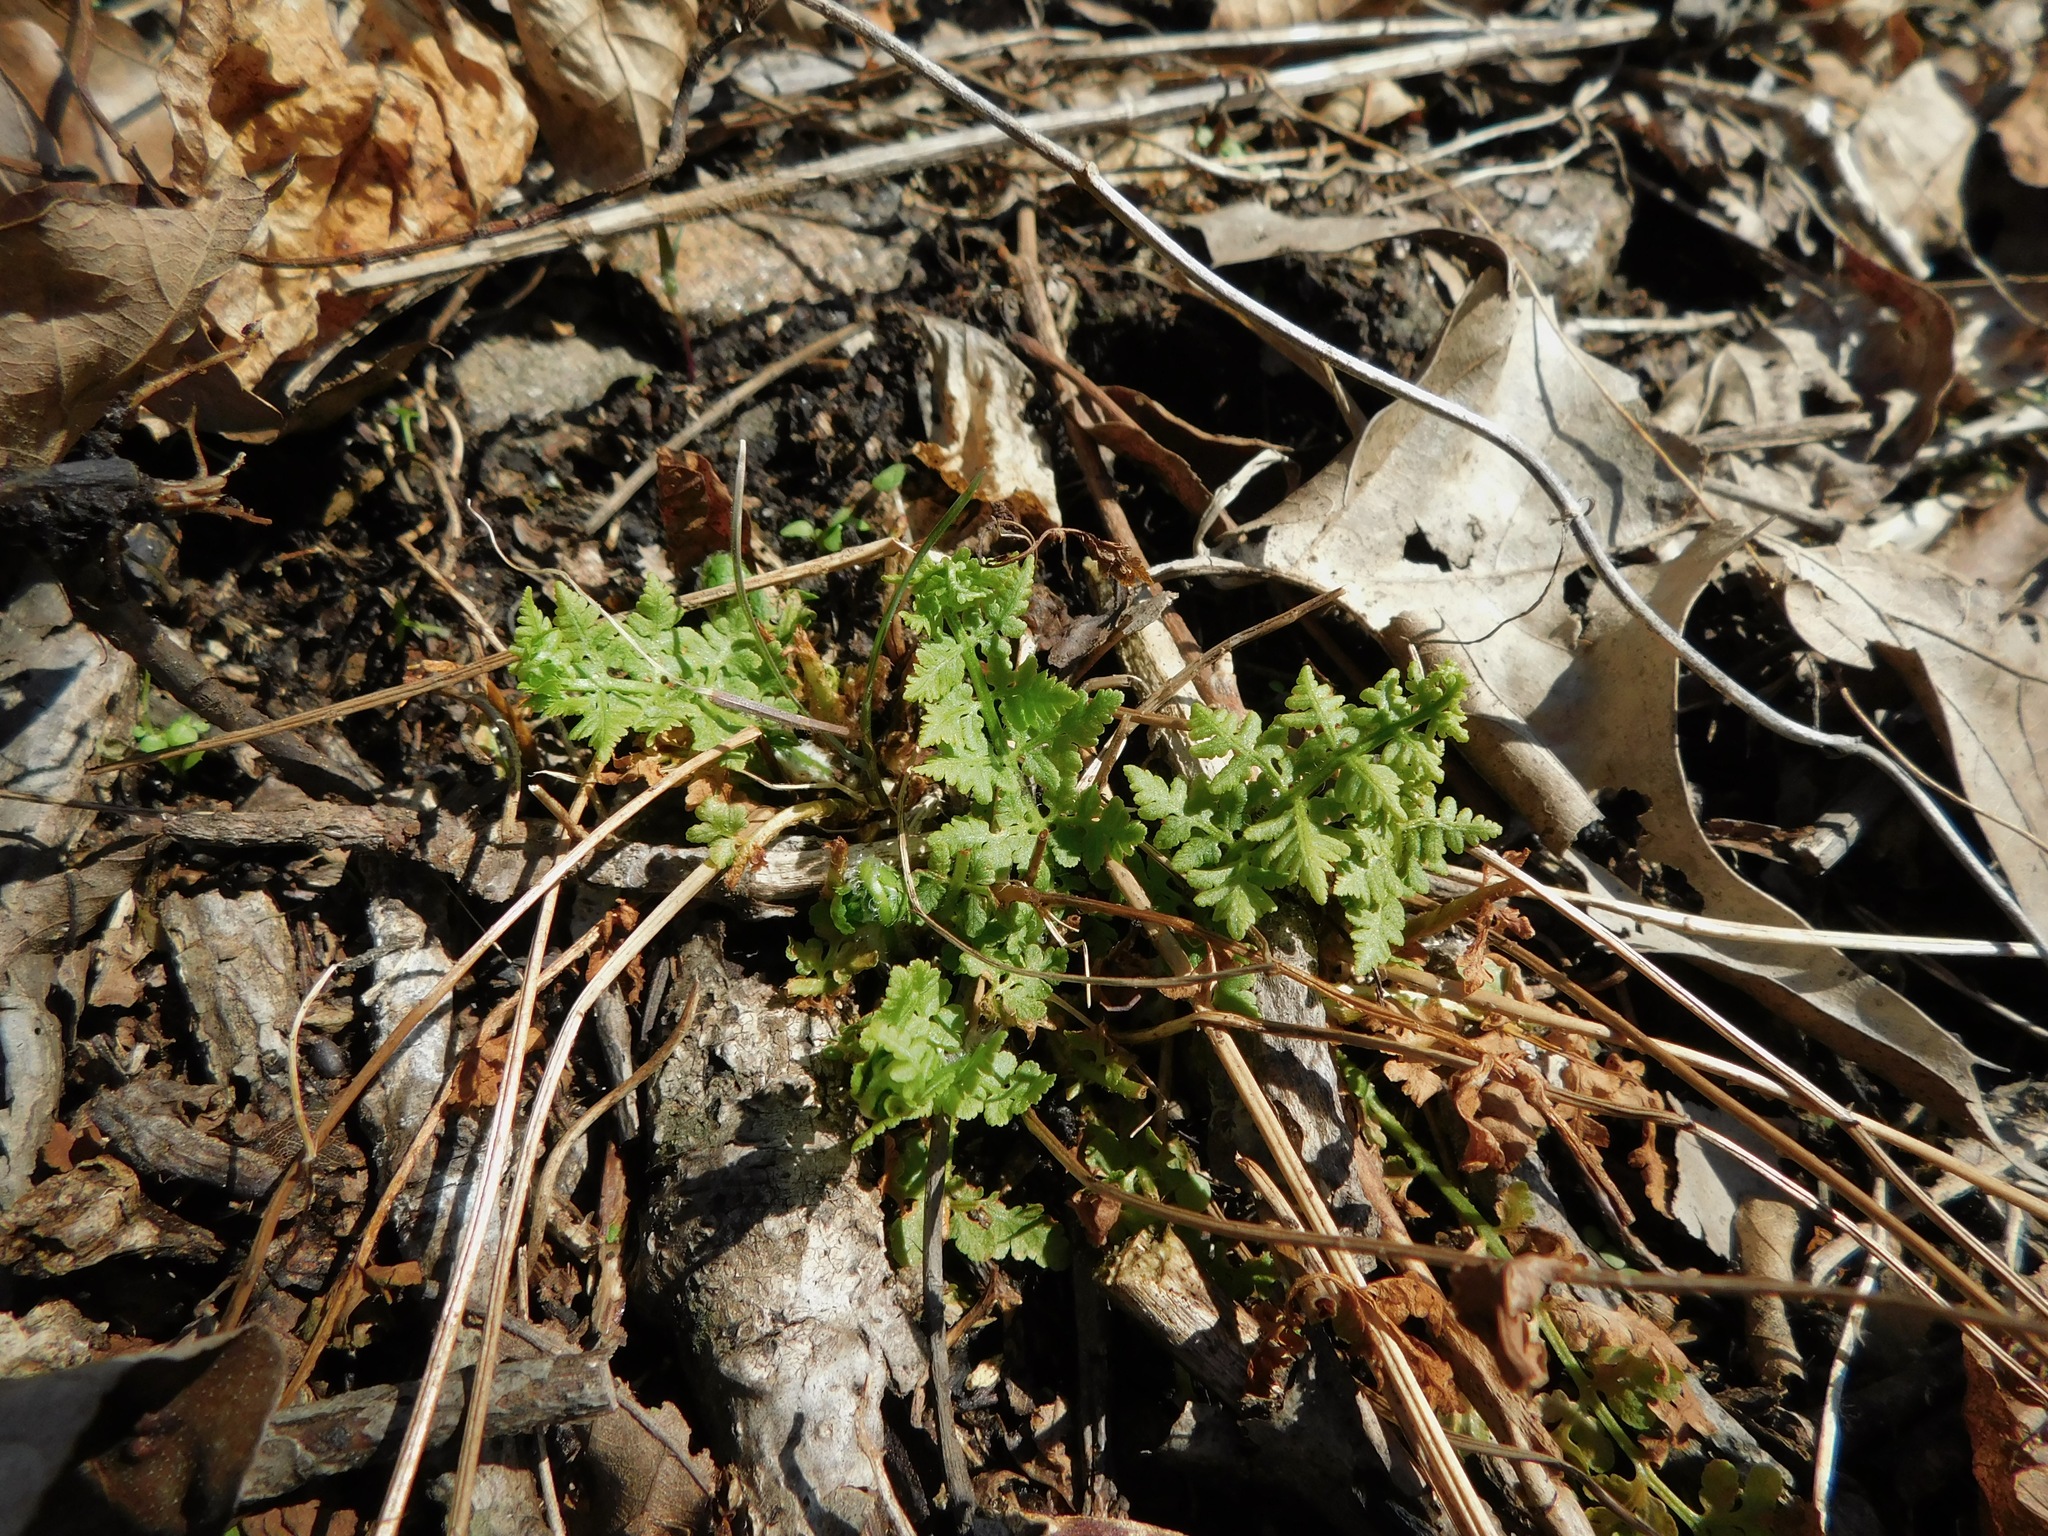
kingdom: Plantae
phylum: Tracheophyta
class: Polypodiopsida
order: Polypodiales
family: Woodsiaceae
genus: Physematium
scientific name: Physematium obtusum
